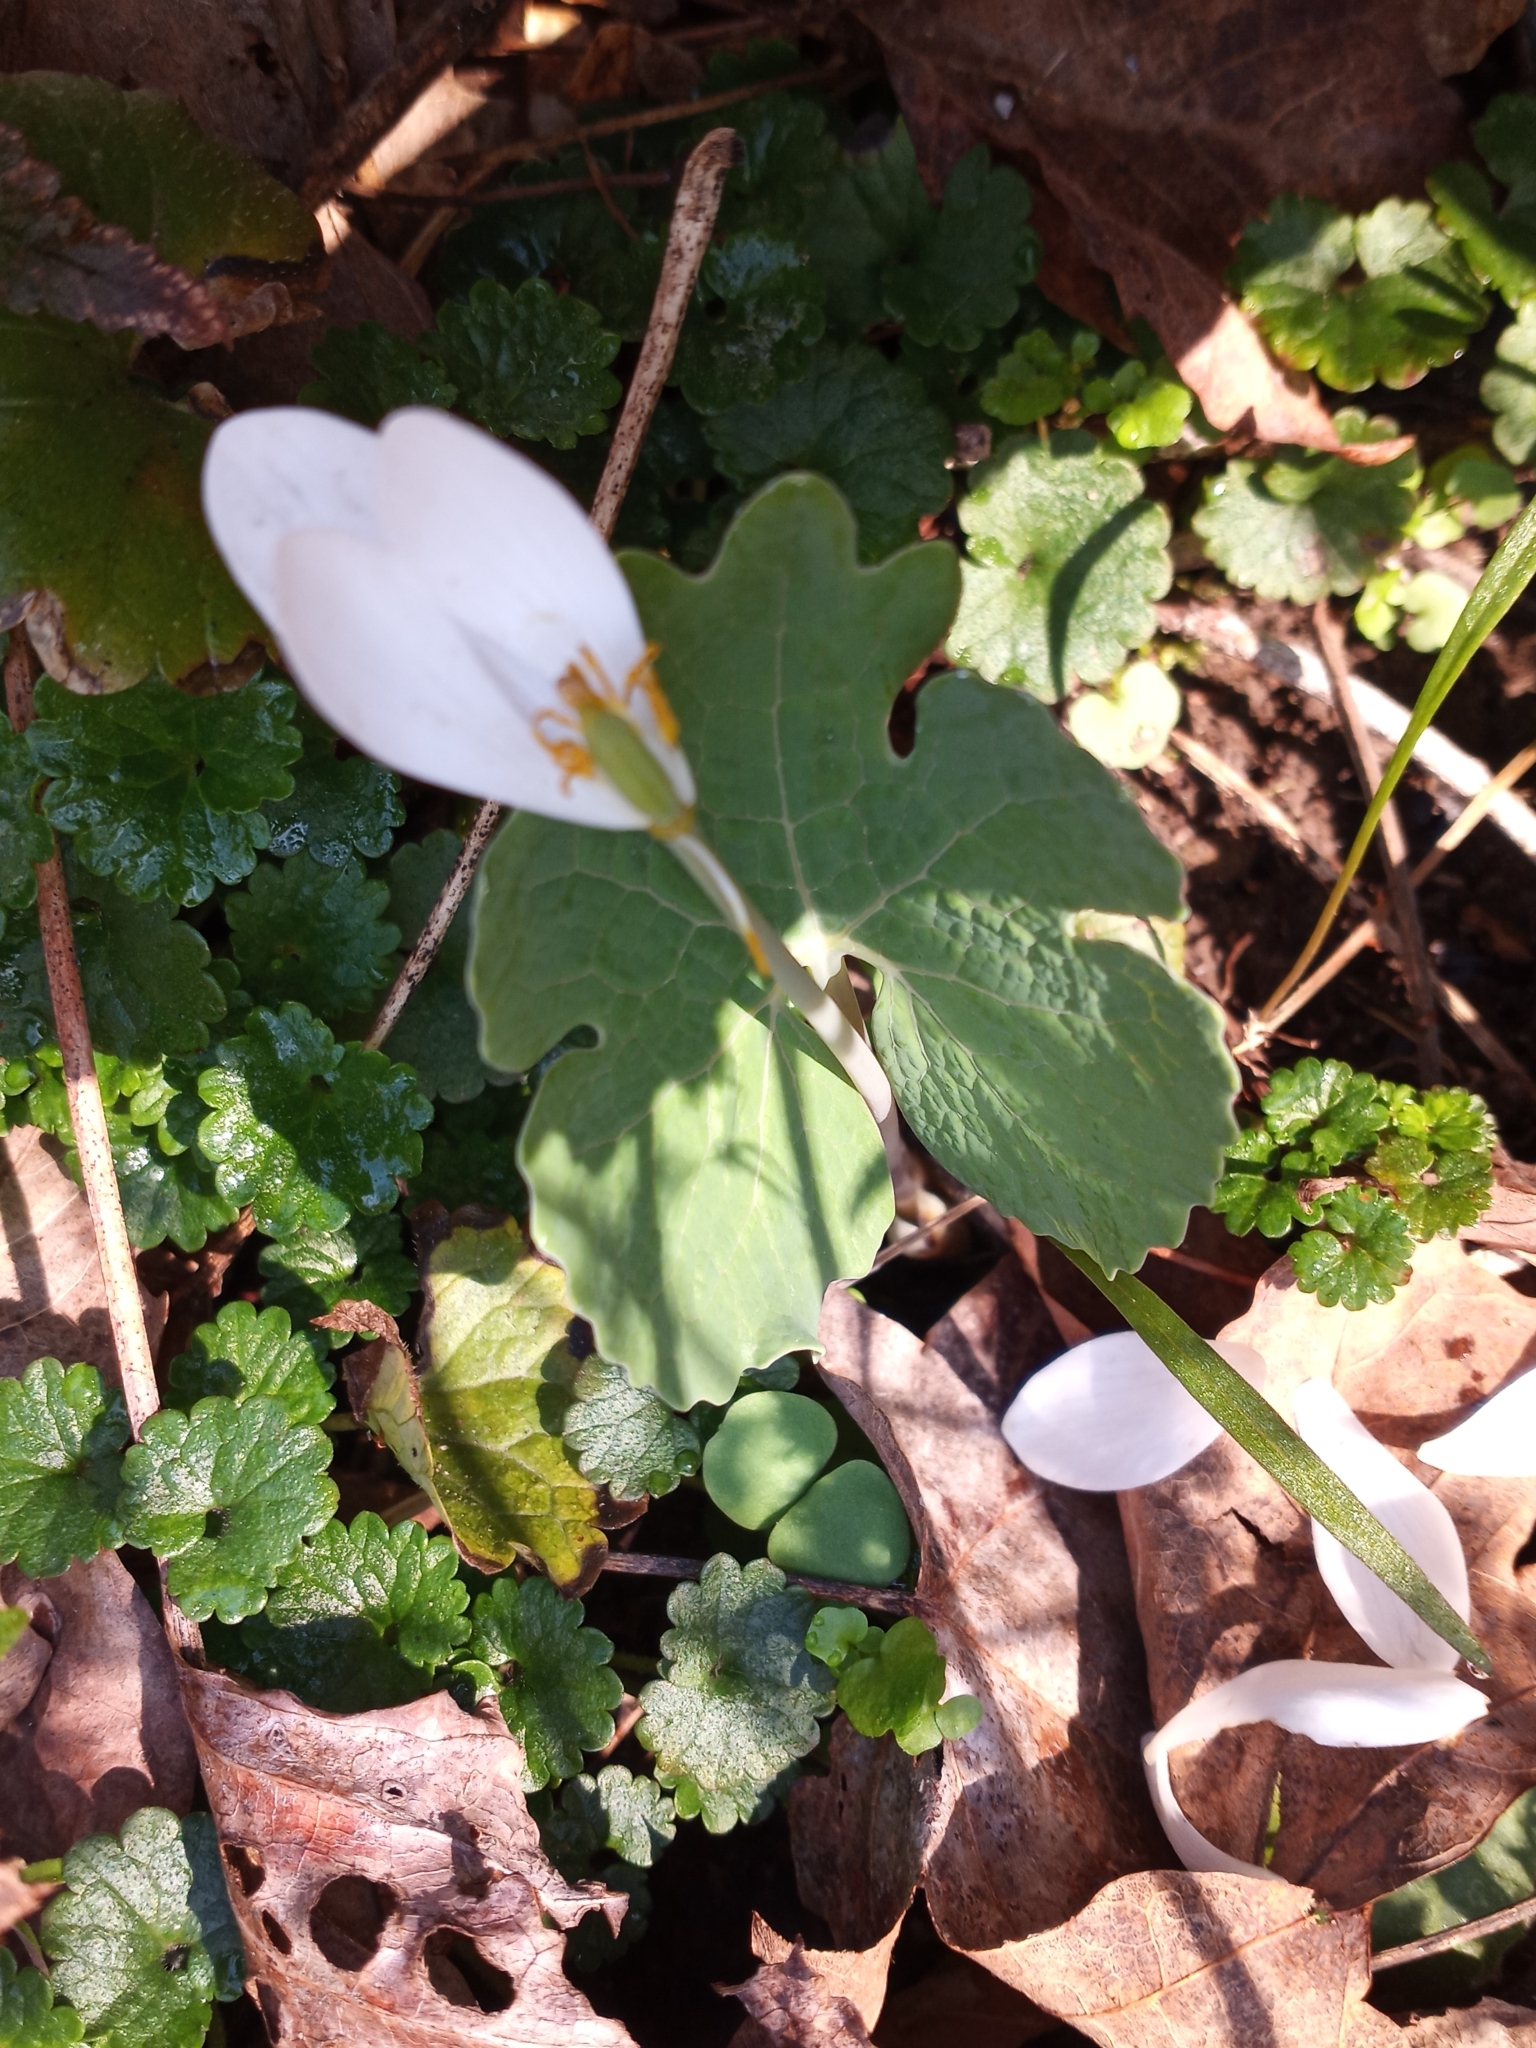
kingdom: Plantae
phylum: Tracheophyta
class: Magnoliopsida
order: Ranunculales
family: Papaveraceae
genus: Sanguinaria
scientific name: Sanguinaria canadensis
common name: Bloodroot
